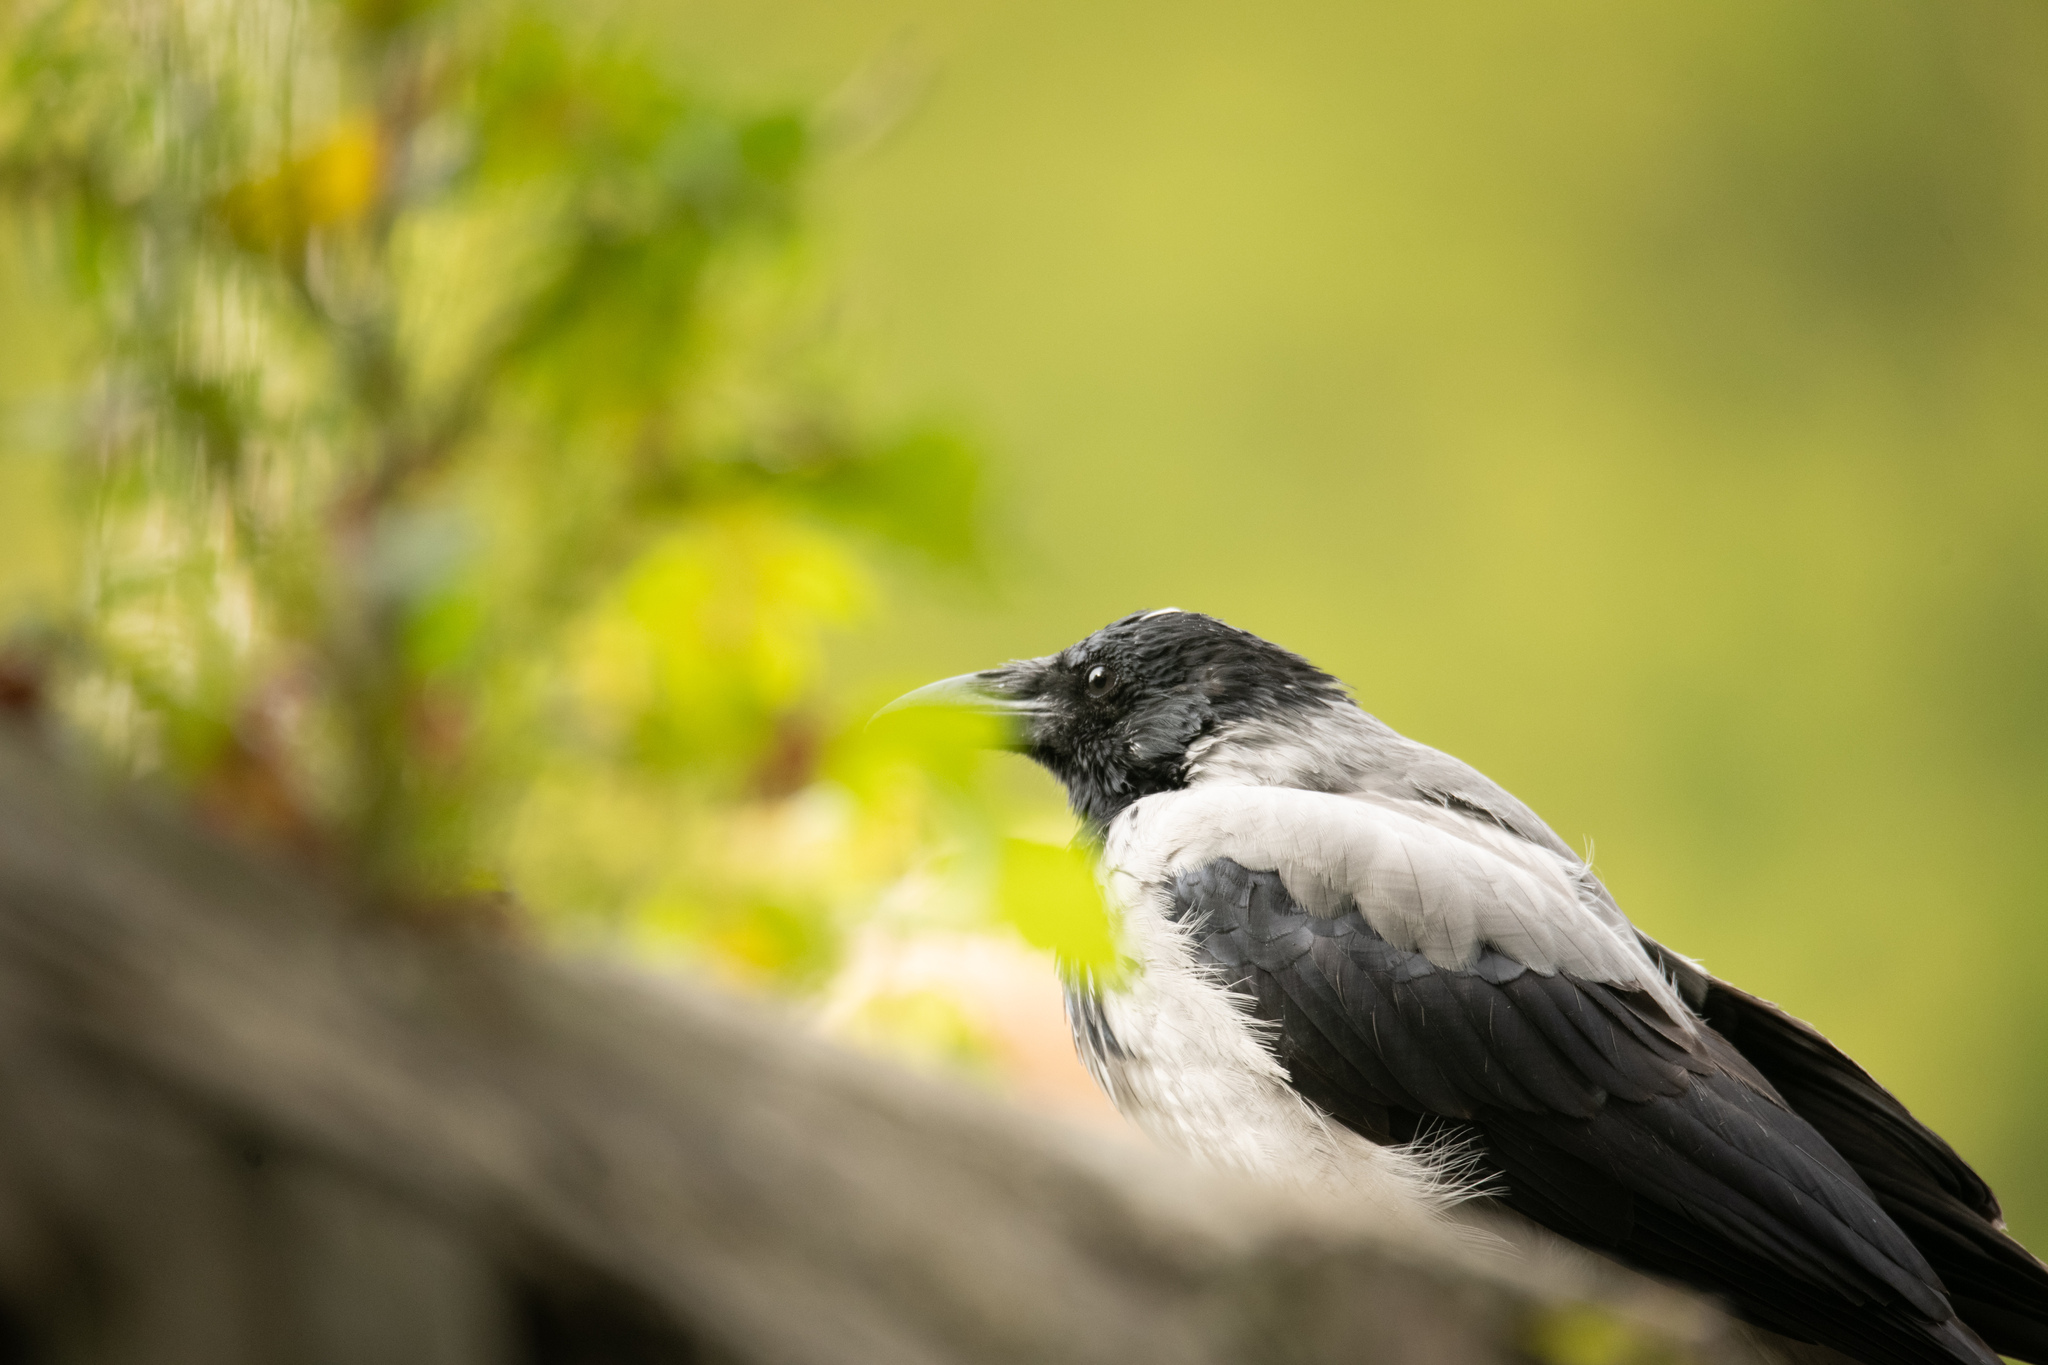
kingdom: Animalia
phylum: Chordata
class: Aves
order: Passeriformes
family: Corvidae
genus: Corvus
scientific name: Corvus cornix
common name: Hooded crow
